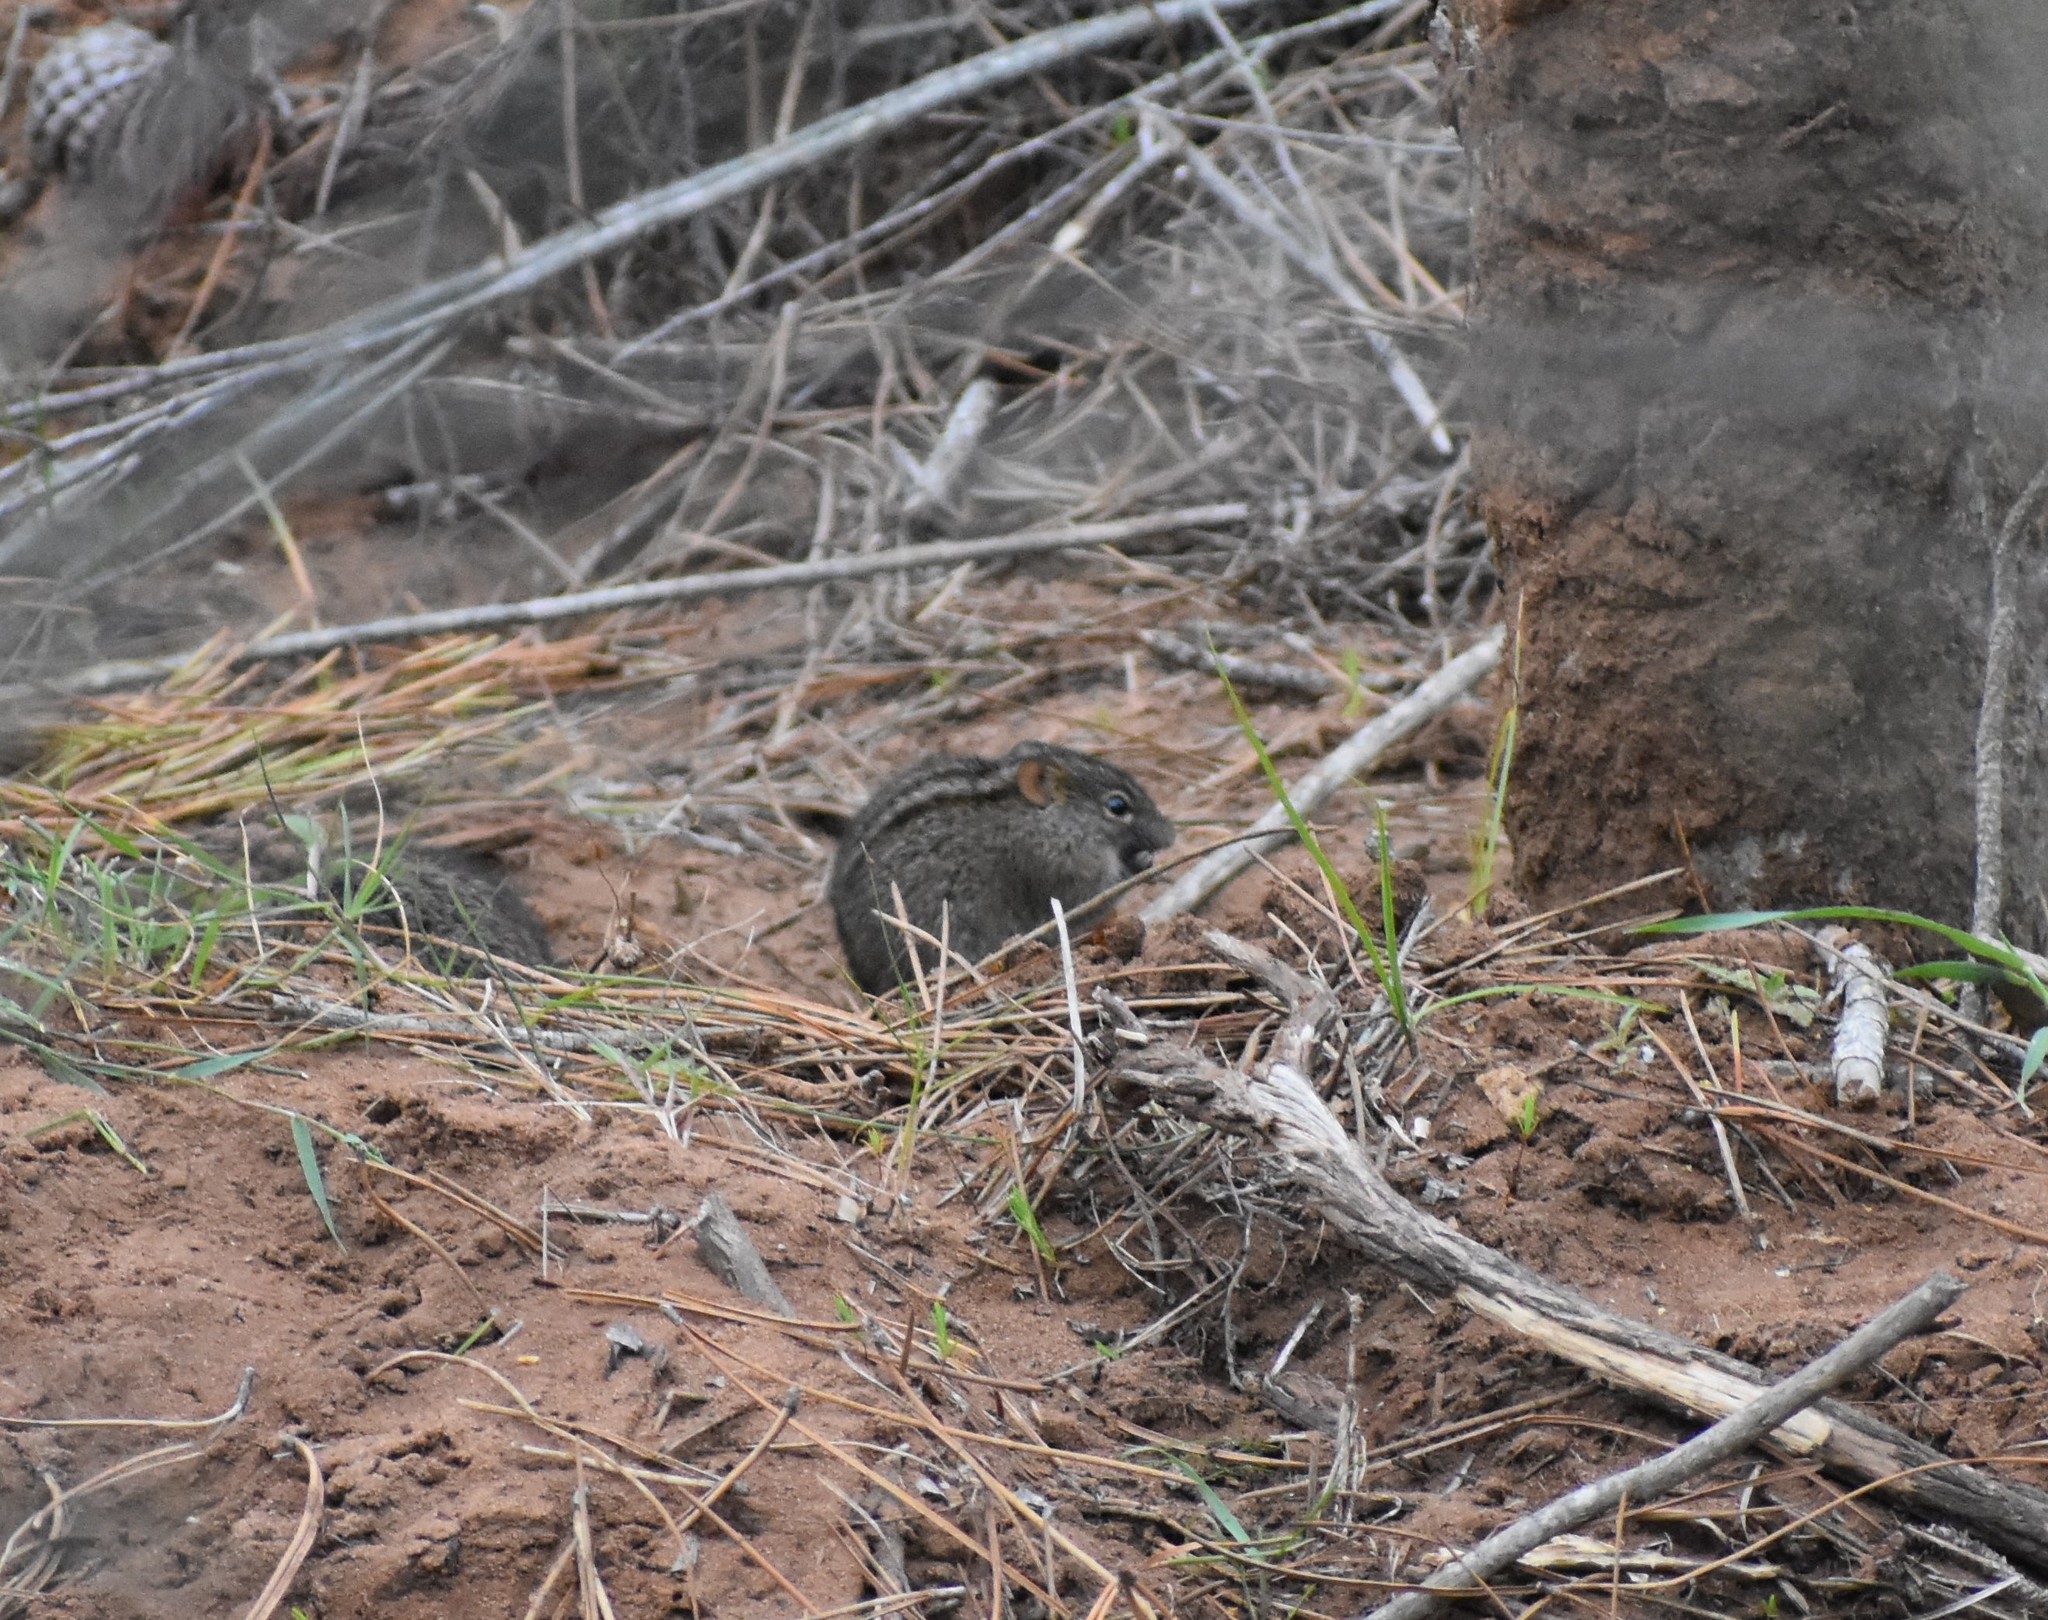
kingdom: Animalia
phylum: Chordata
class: Mammalia
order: Rodentia
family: Muridae
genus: Rhabdomys
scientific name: Rhabdomys pumilio
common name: Xeric four-striped grass rat
